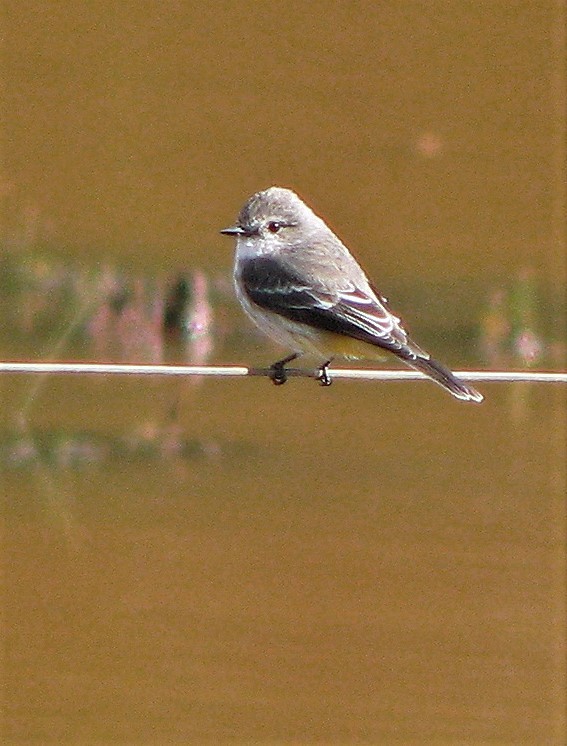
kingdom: Animalia
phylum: Chordata
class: Aves
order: Passeriformes
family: Tyrannidae
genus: Pyrocephalus
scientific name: Pyrocephalus rubinus
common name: Vermilion flycatcher
